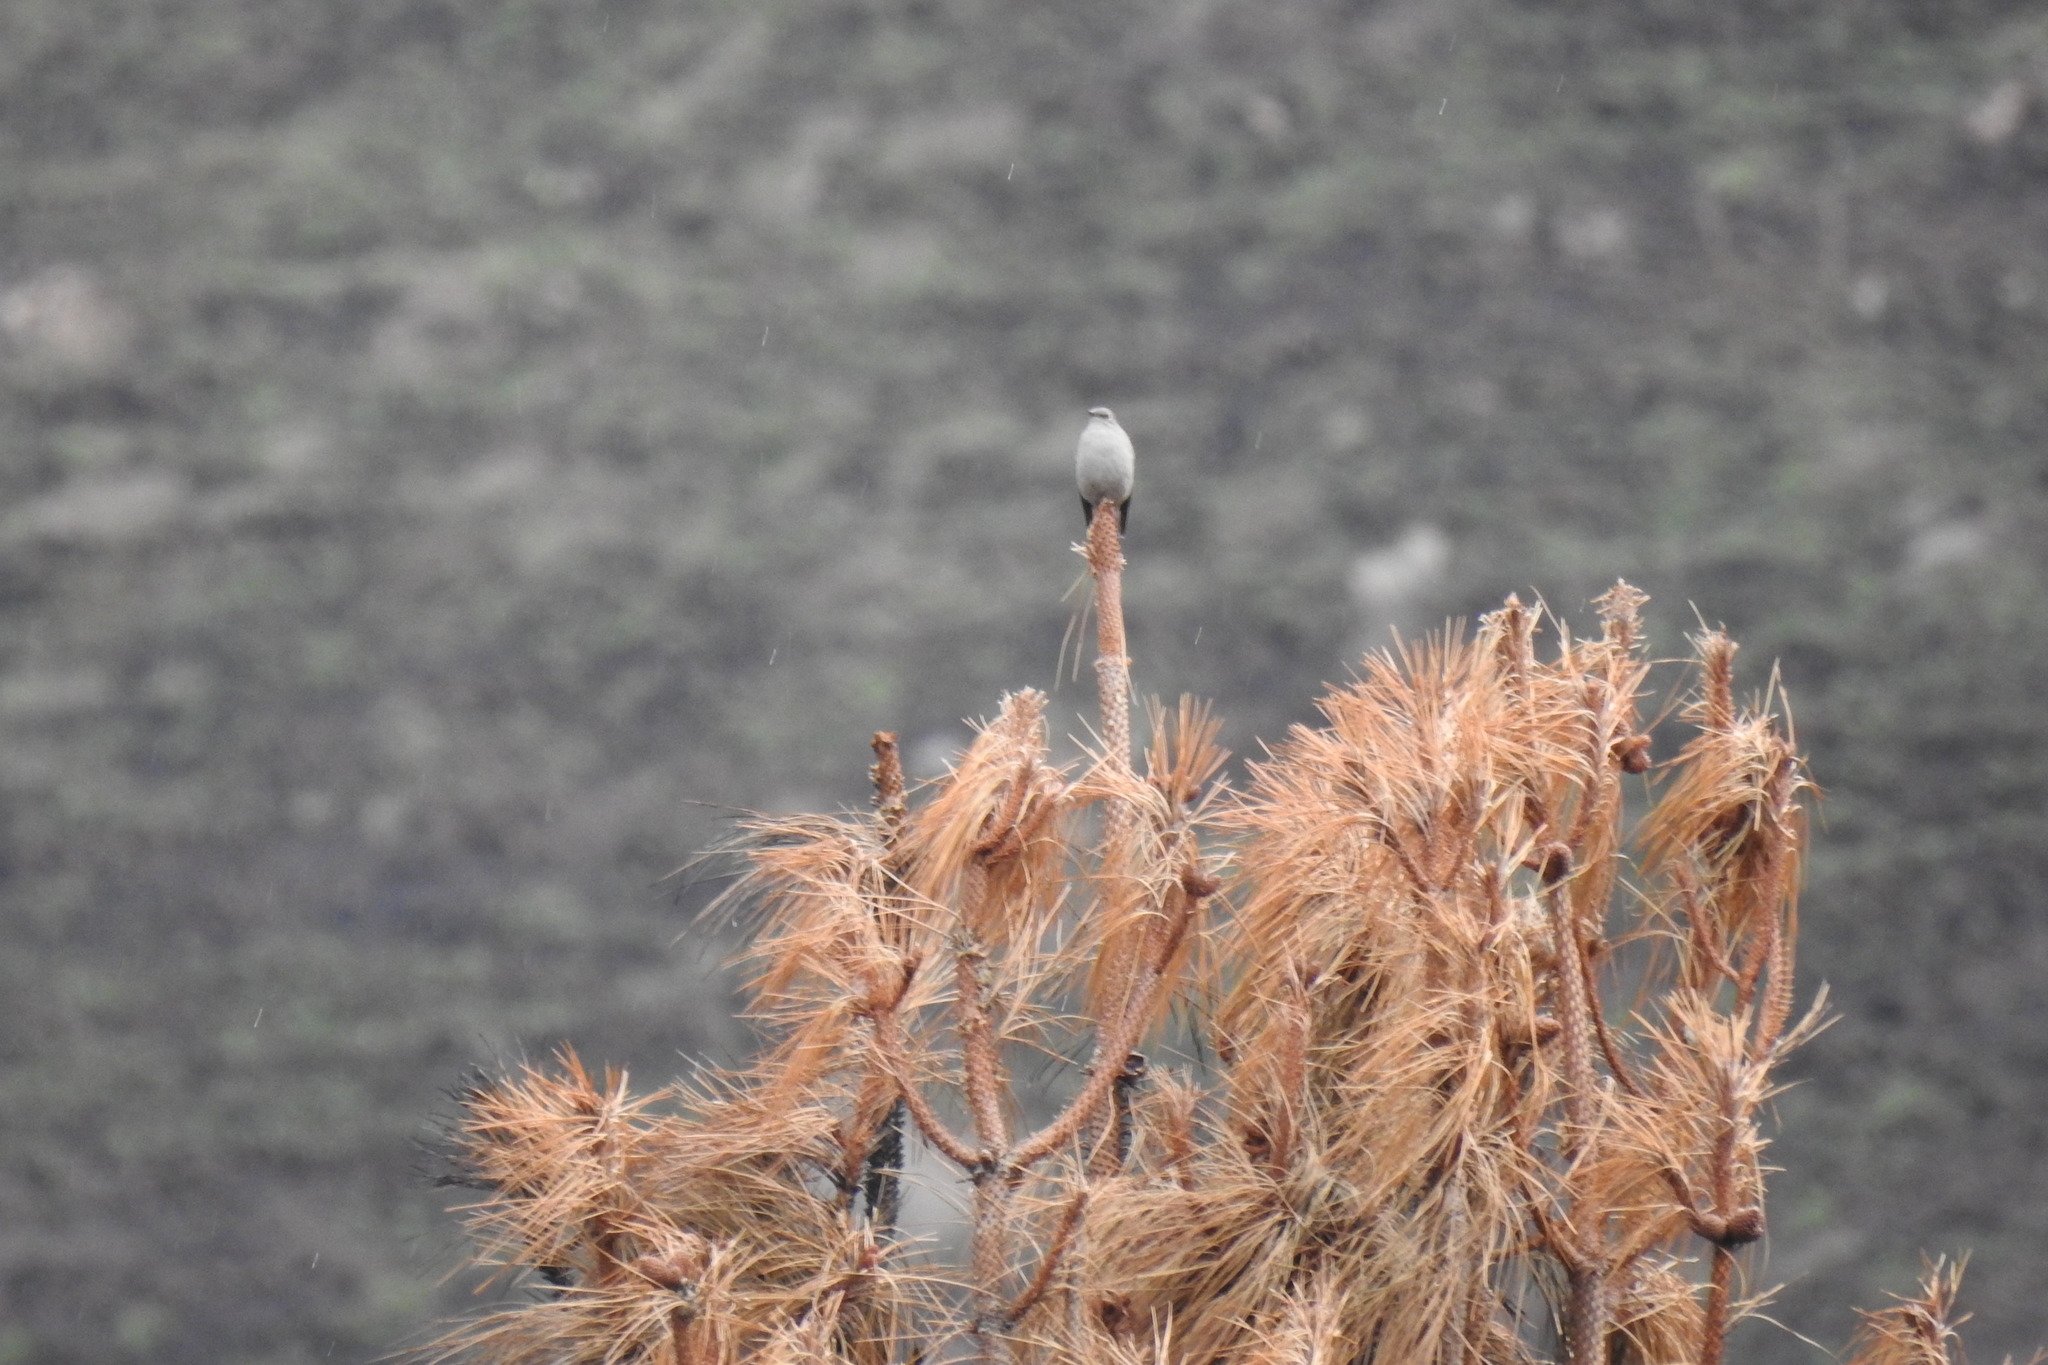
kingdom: Animalia
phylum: Chordata
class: Aves
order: Passeriformes
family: Turdidae
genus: Myadestes
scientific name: Myadestes townsendi
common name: Townsend's solitaire
